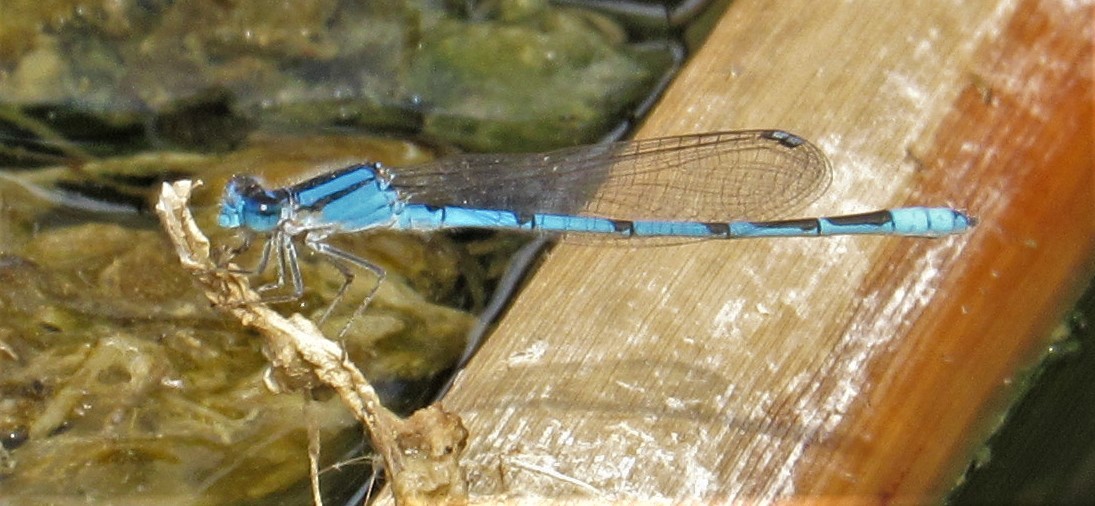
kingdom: Animalia
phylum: Arthropoda
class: Insecta
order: Odonata
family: Coenagrionidae
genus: Enallagma
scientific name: Enallagma civile
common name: Damselfly
